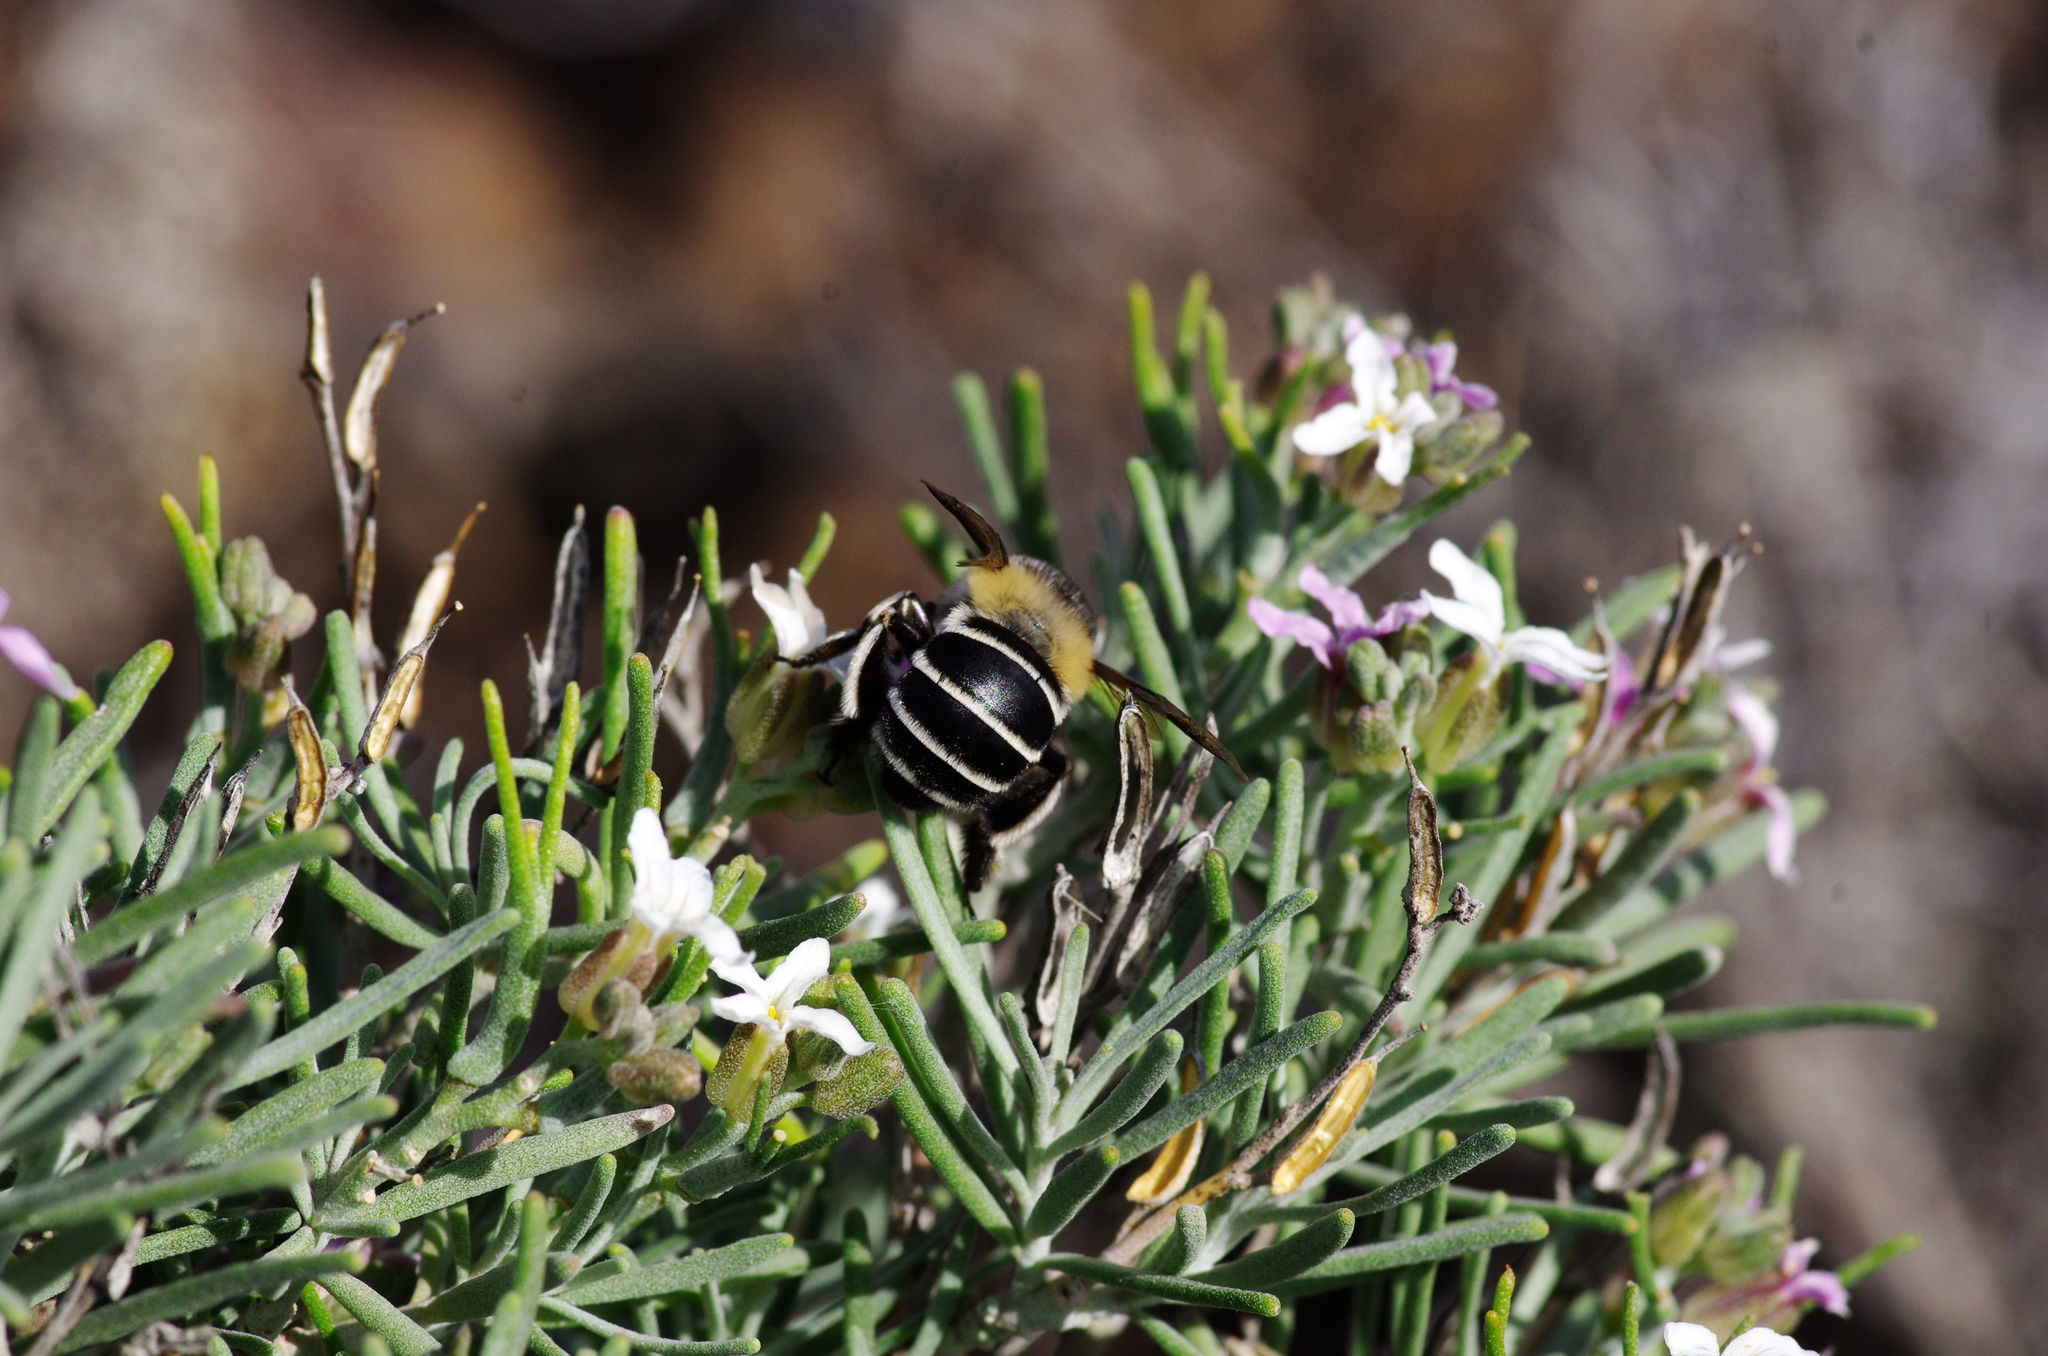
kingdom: Animalia
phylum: Arthropoda
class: Insecta
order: Hymenoptera
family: Apidae
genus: Amegilla
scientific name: Amegilla canifrons
